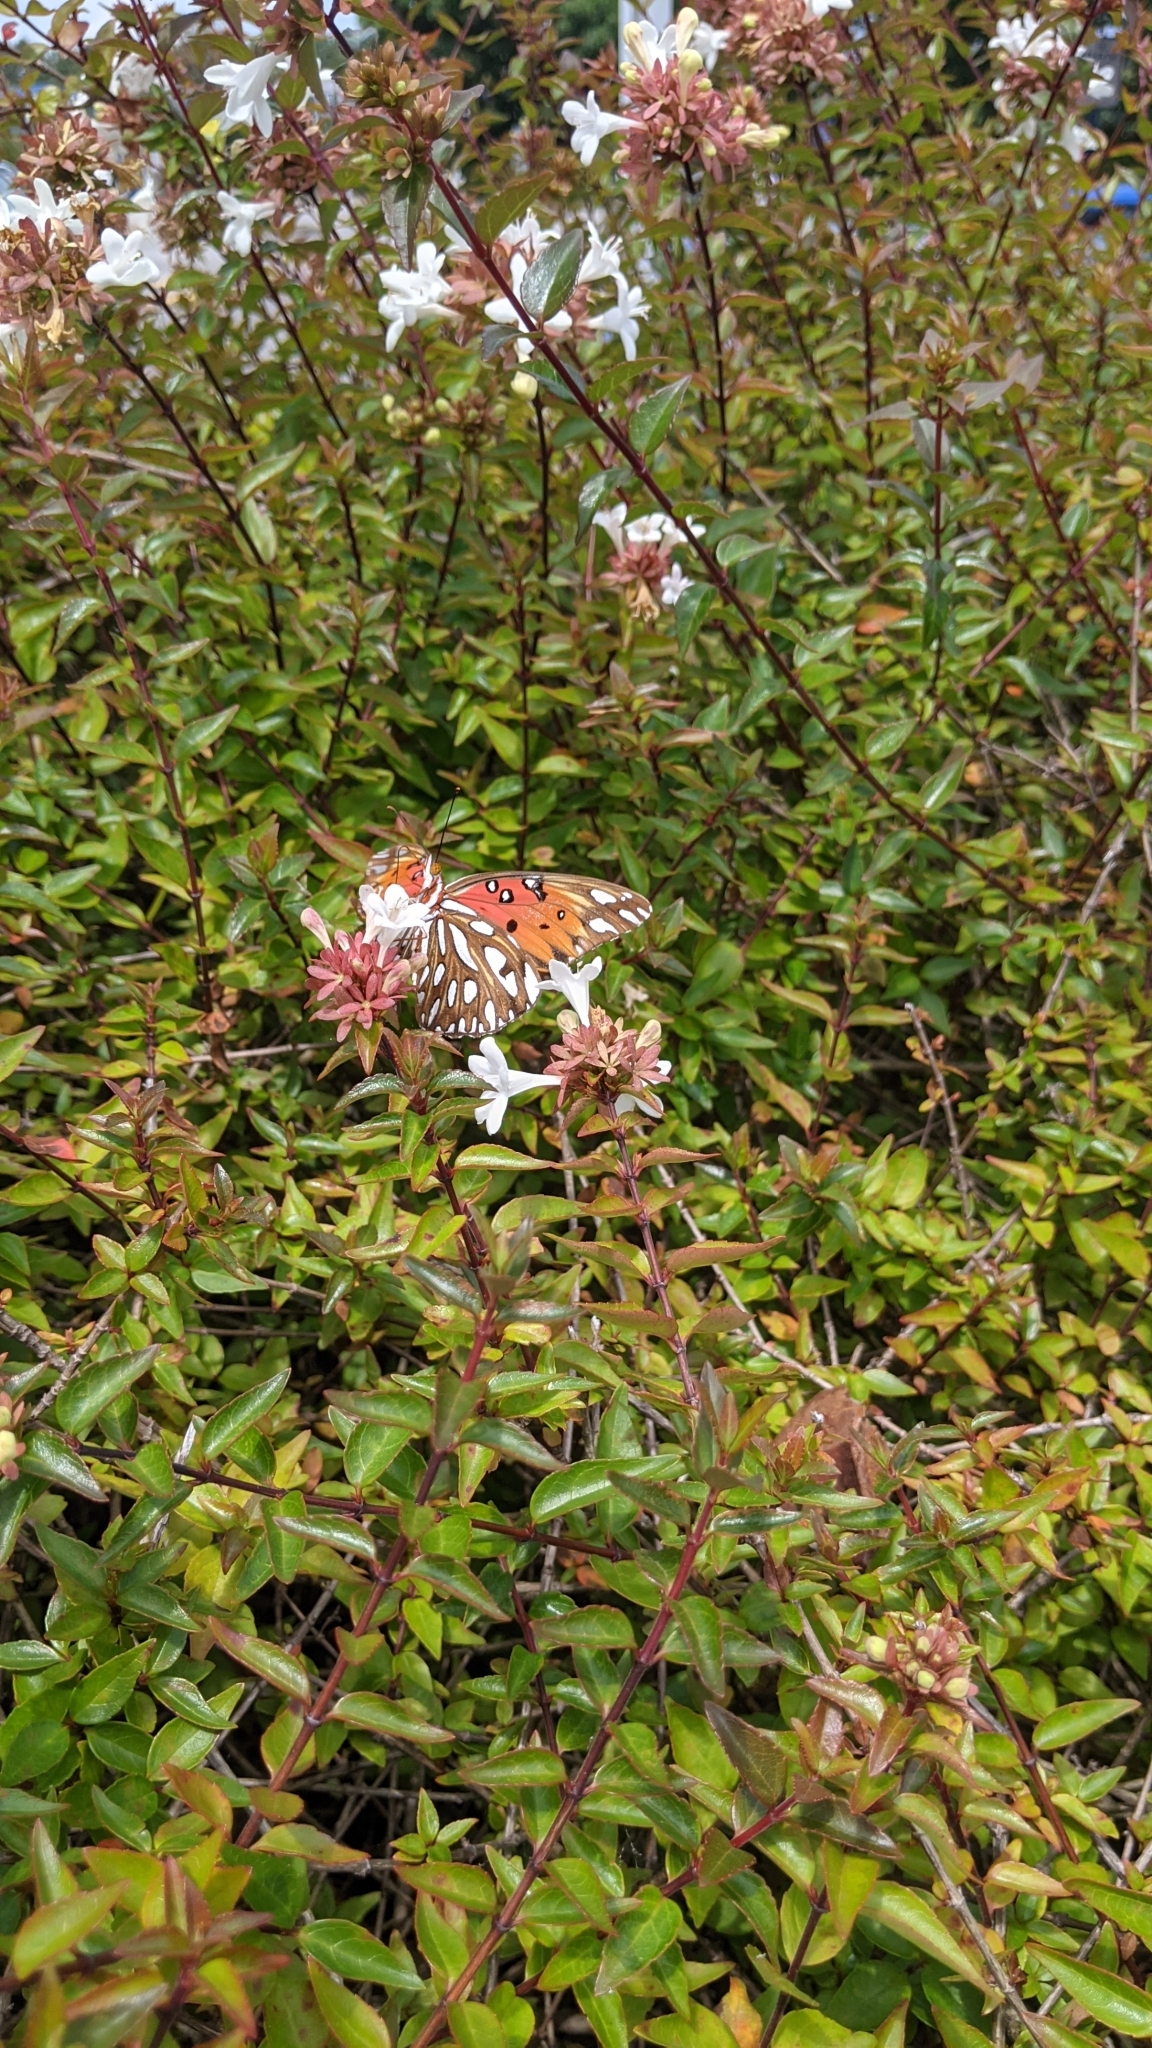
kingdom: Animalia
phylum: Arthropoda
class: Insecta
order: Lepidoptera
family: Nymphalidae
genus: Dione
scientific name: Dione vanillae
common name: Gulf fritillary
